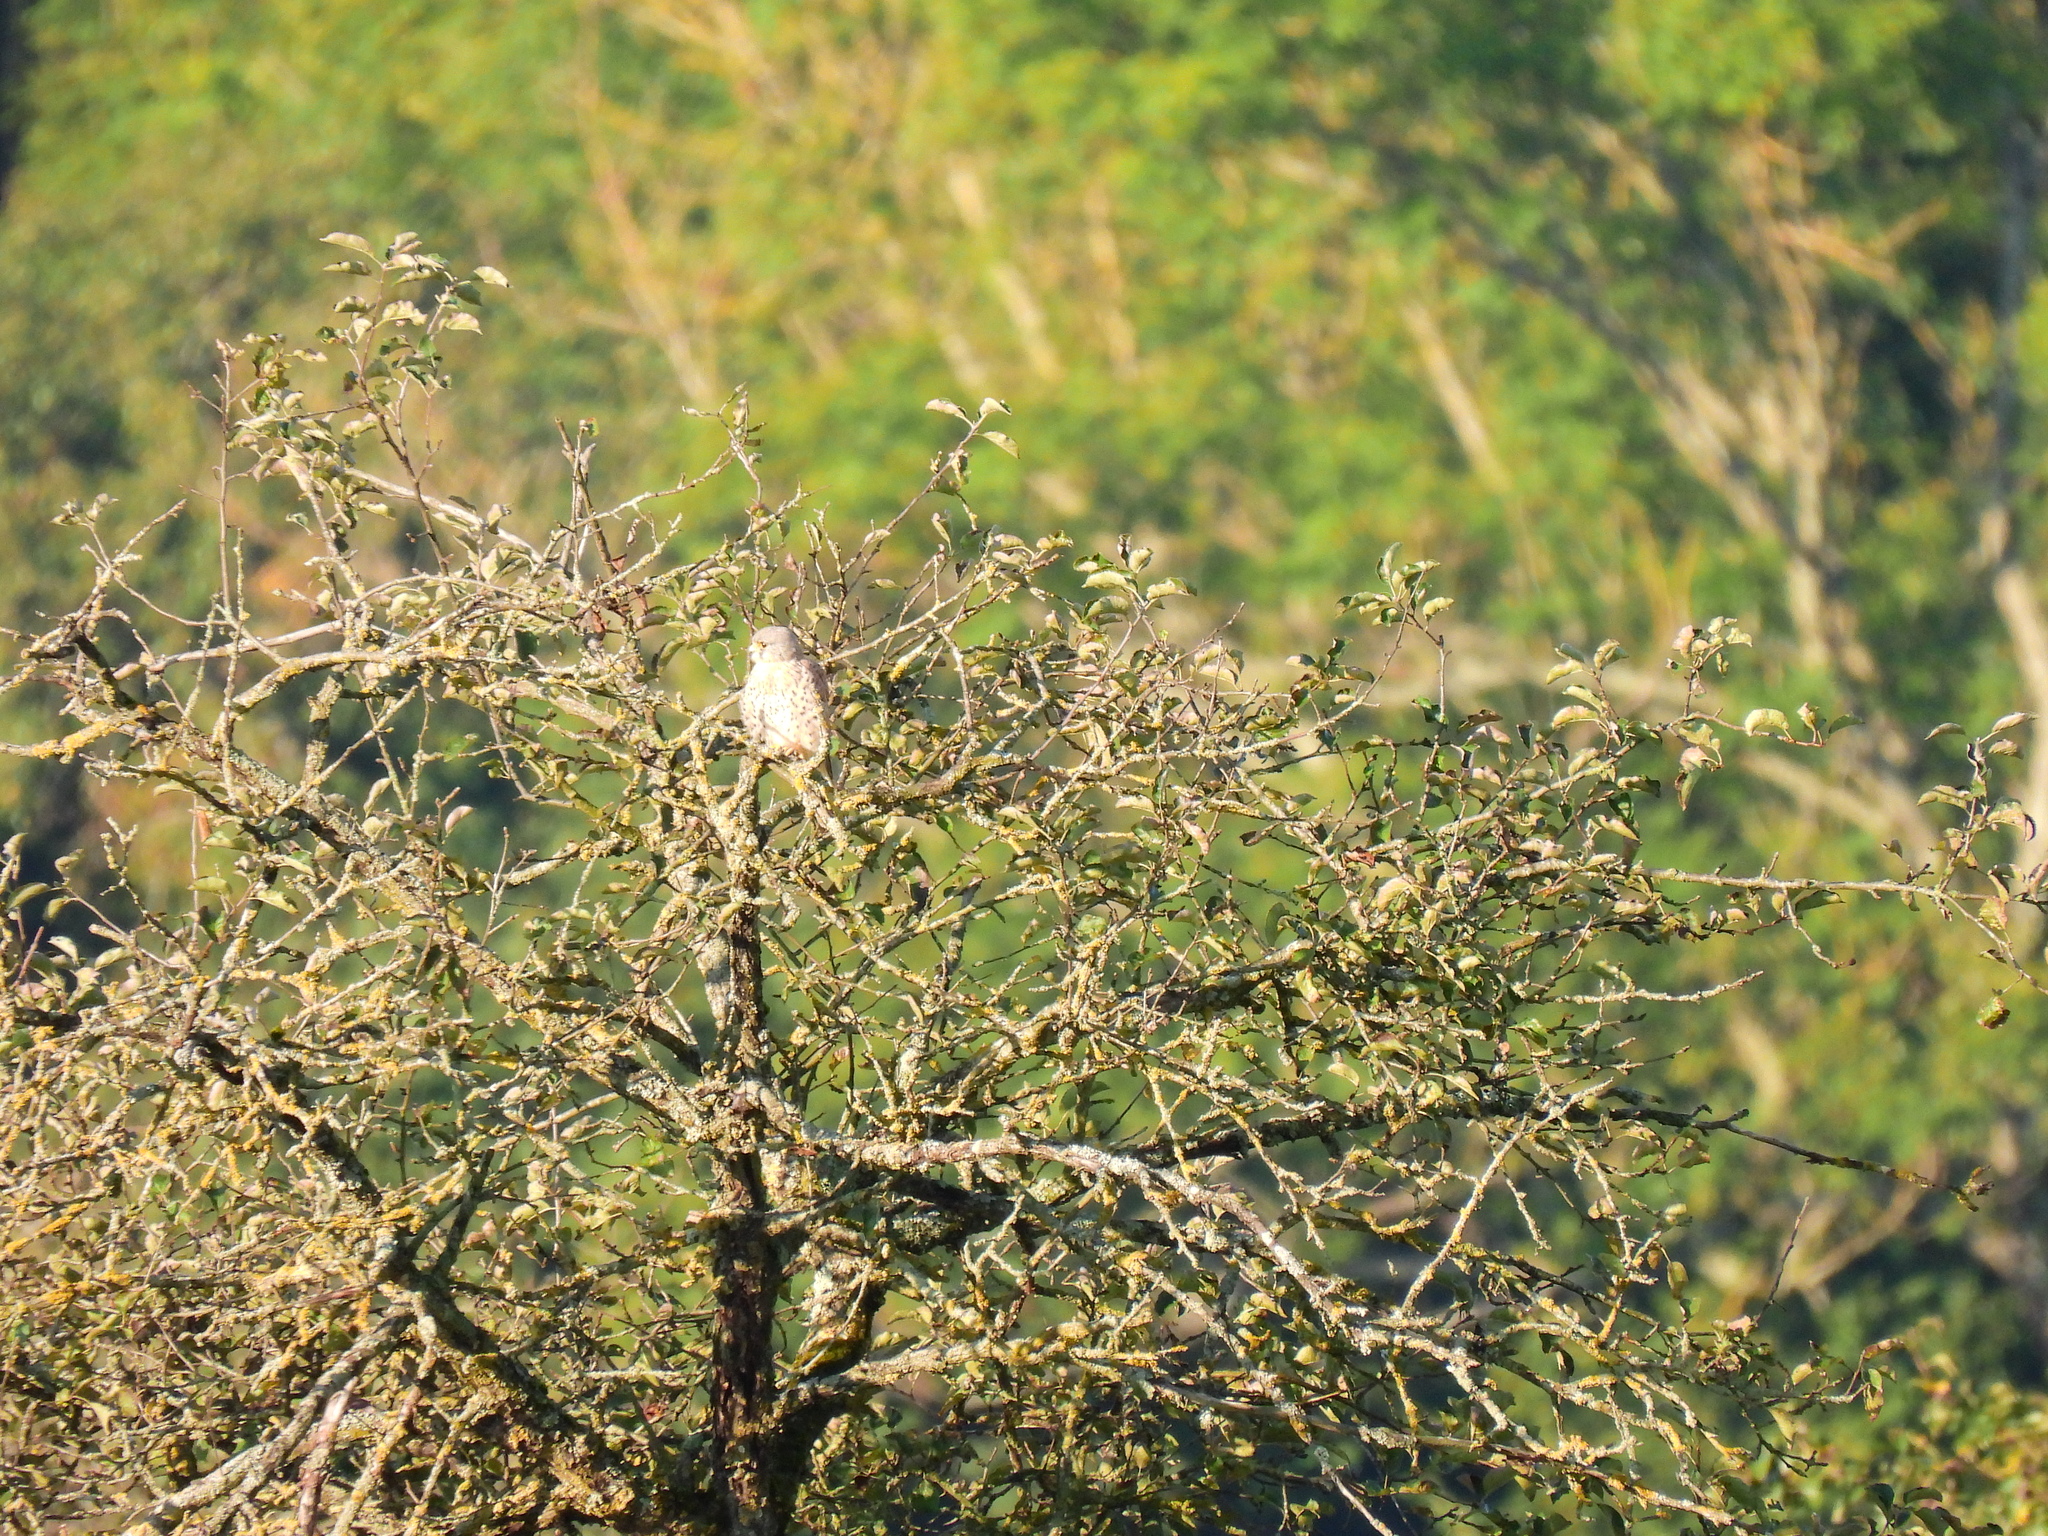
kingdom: Animalia
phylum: Chordata
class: Aves
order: Falconiformes
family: Falconidae
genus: Falco
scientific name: Falco tinnunculus
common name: Common kestrel
